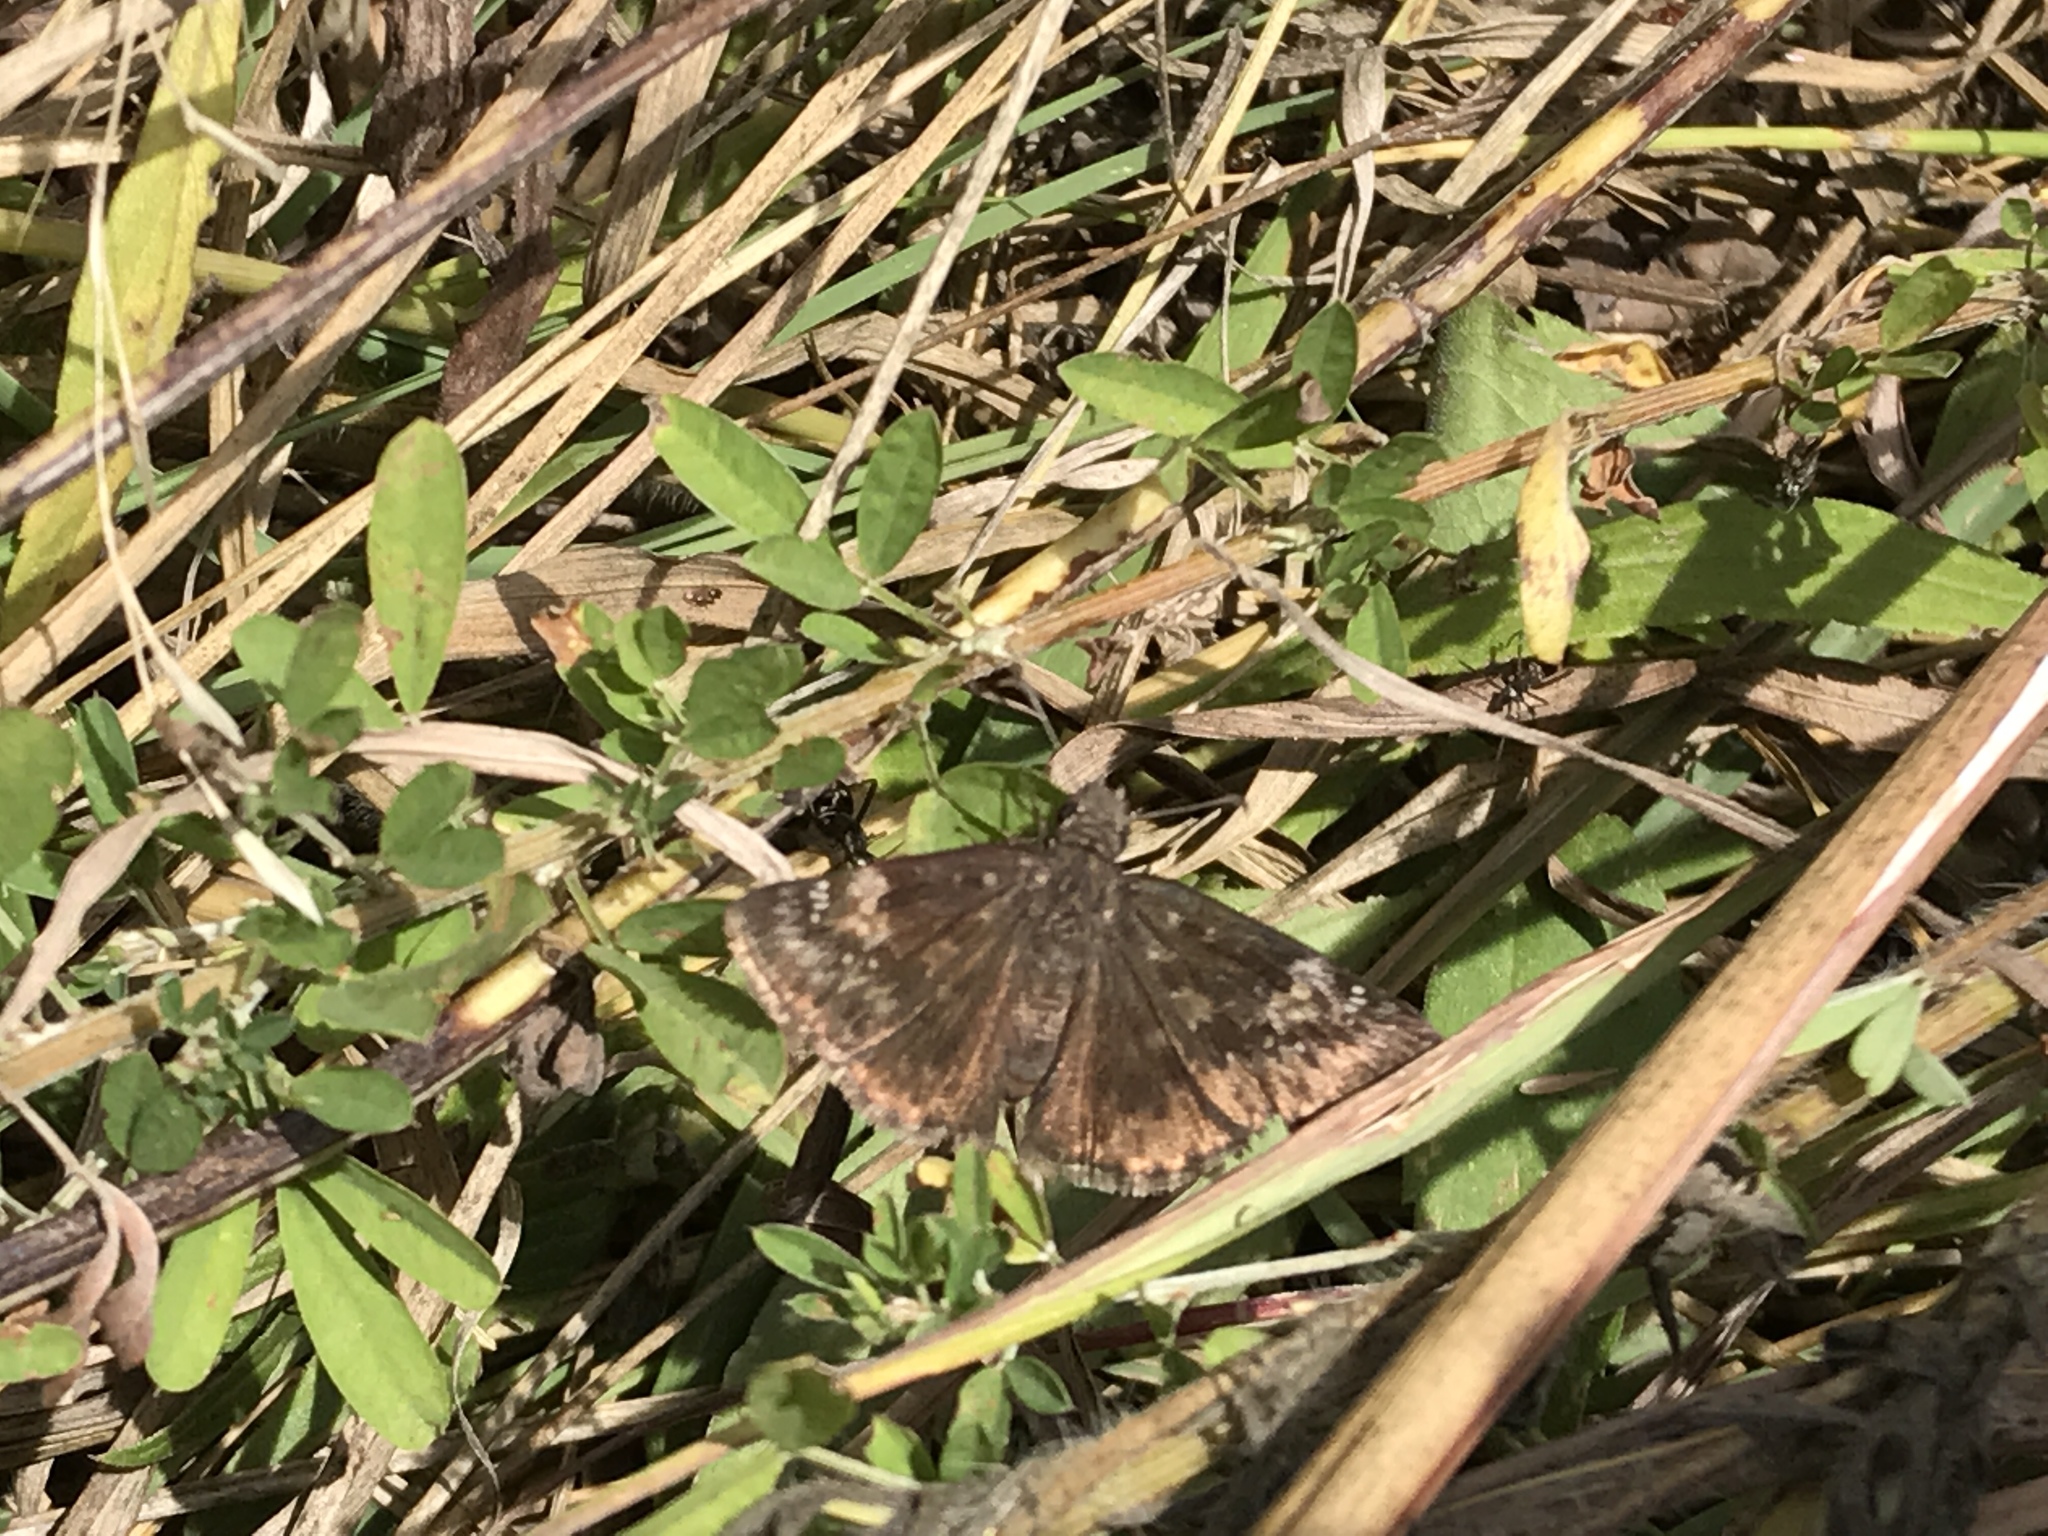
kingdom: Animalia
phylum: Arthropoda
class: Insecta
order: Lepidoptera
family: Hesperiidae
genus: Erynnis
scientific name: Erynnis baptisiae
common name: Wild indigo duskywing
